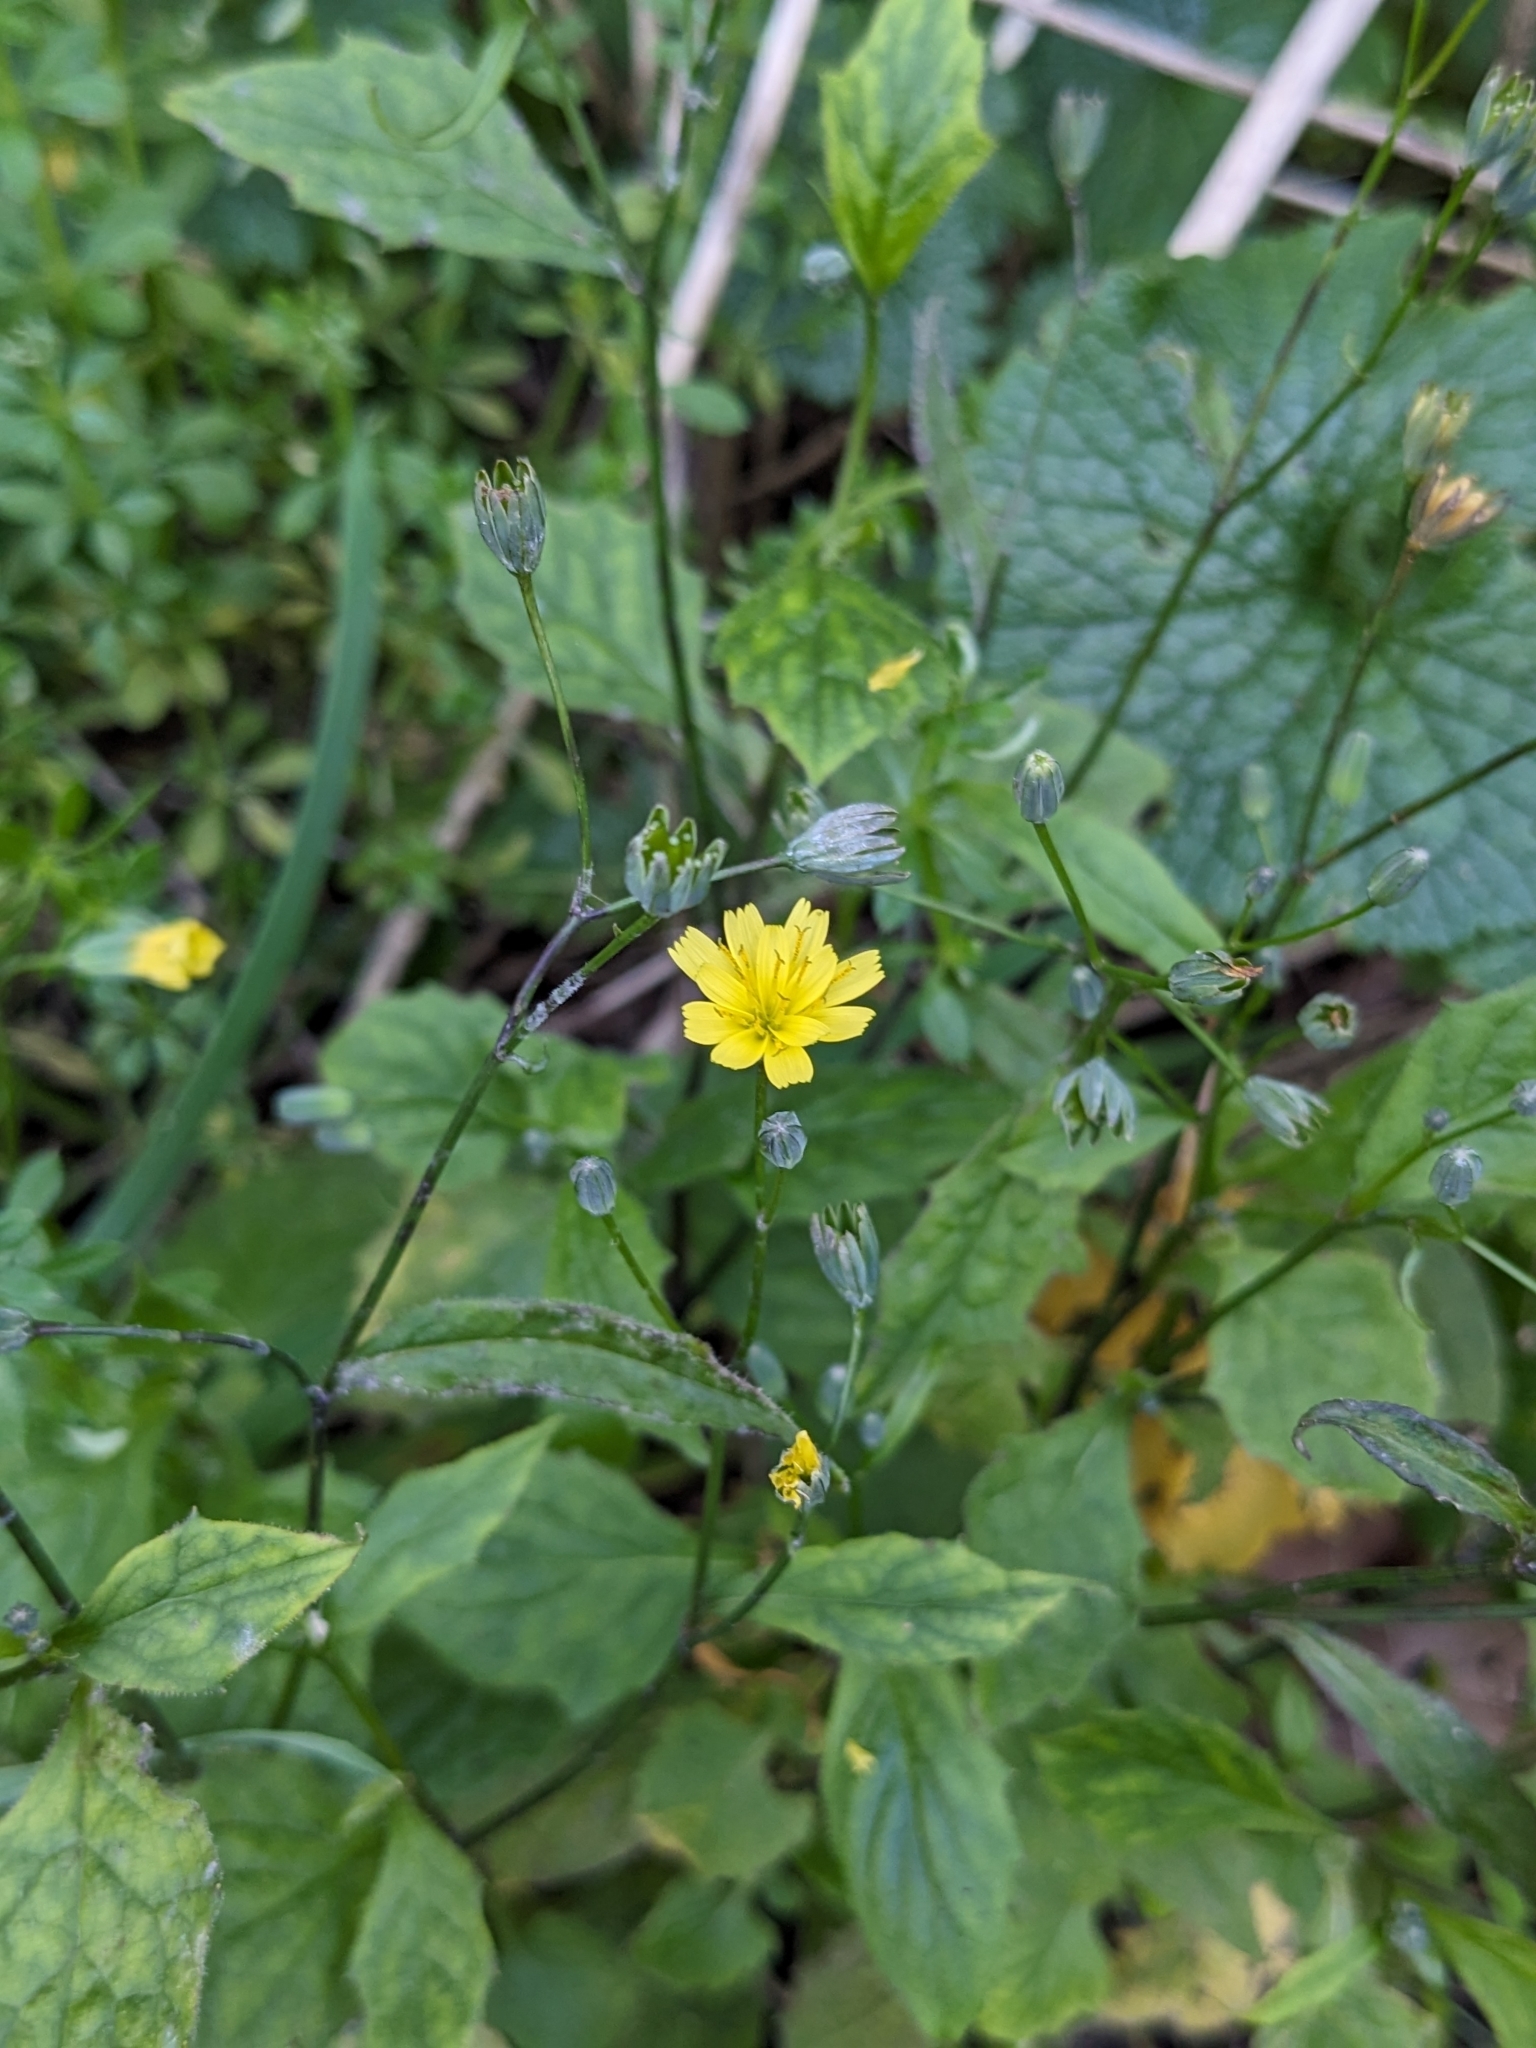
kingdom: Plantae
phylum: Tracheophyta
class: Magnoliopsida
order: Asterales
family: Asteraceae
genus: Lapsana
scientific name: Lapsana communis
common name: Nipplewort
